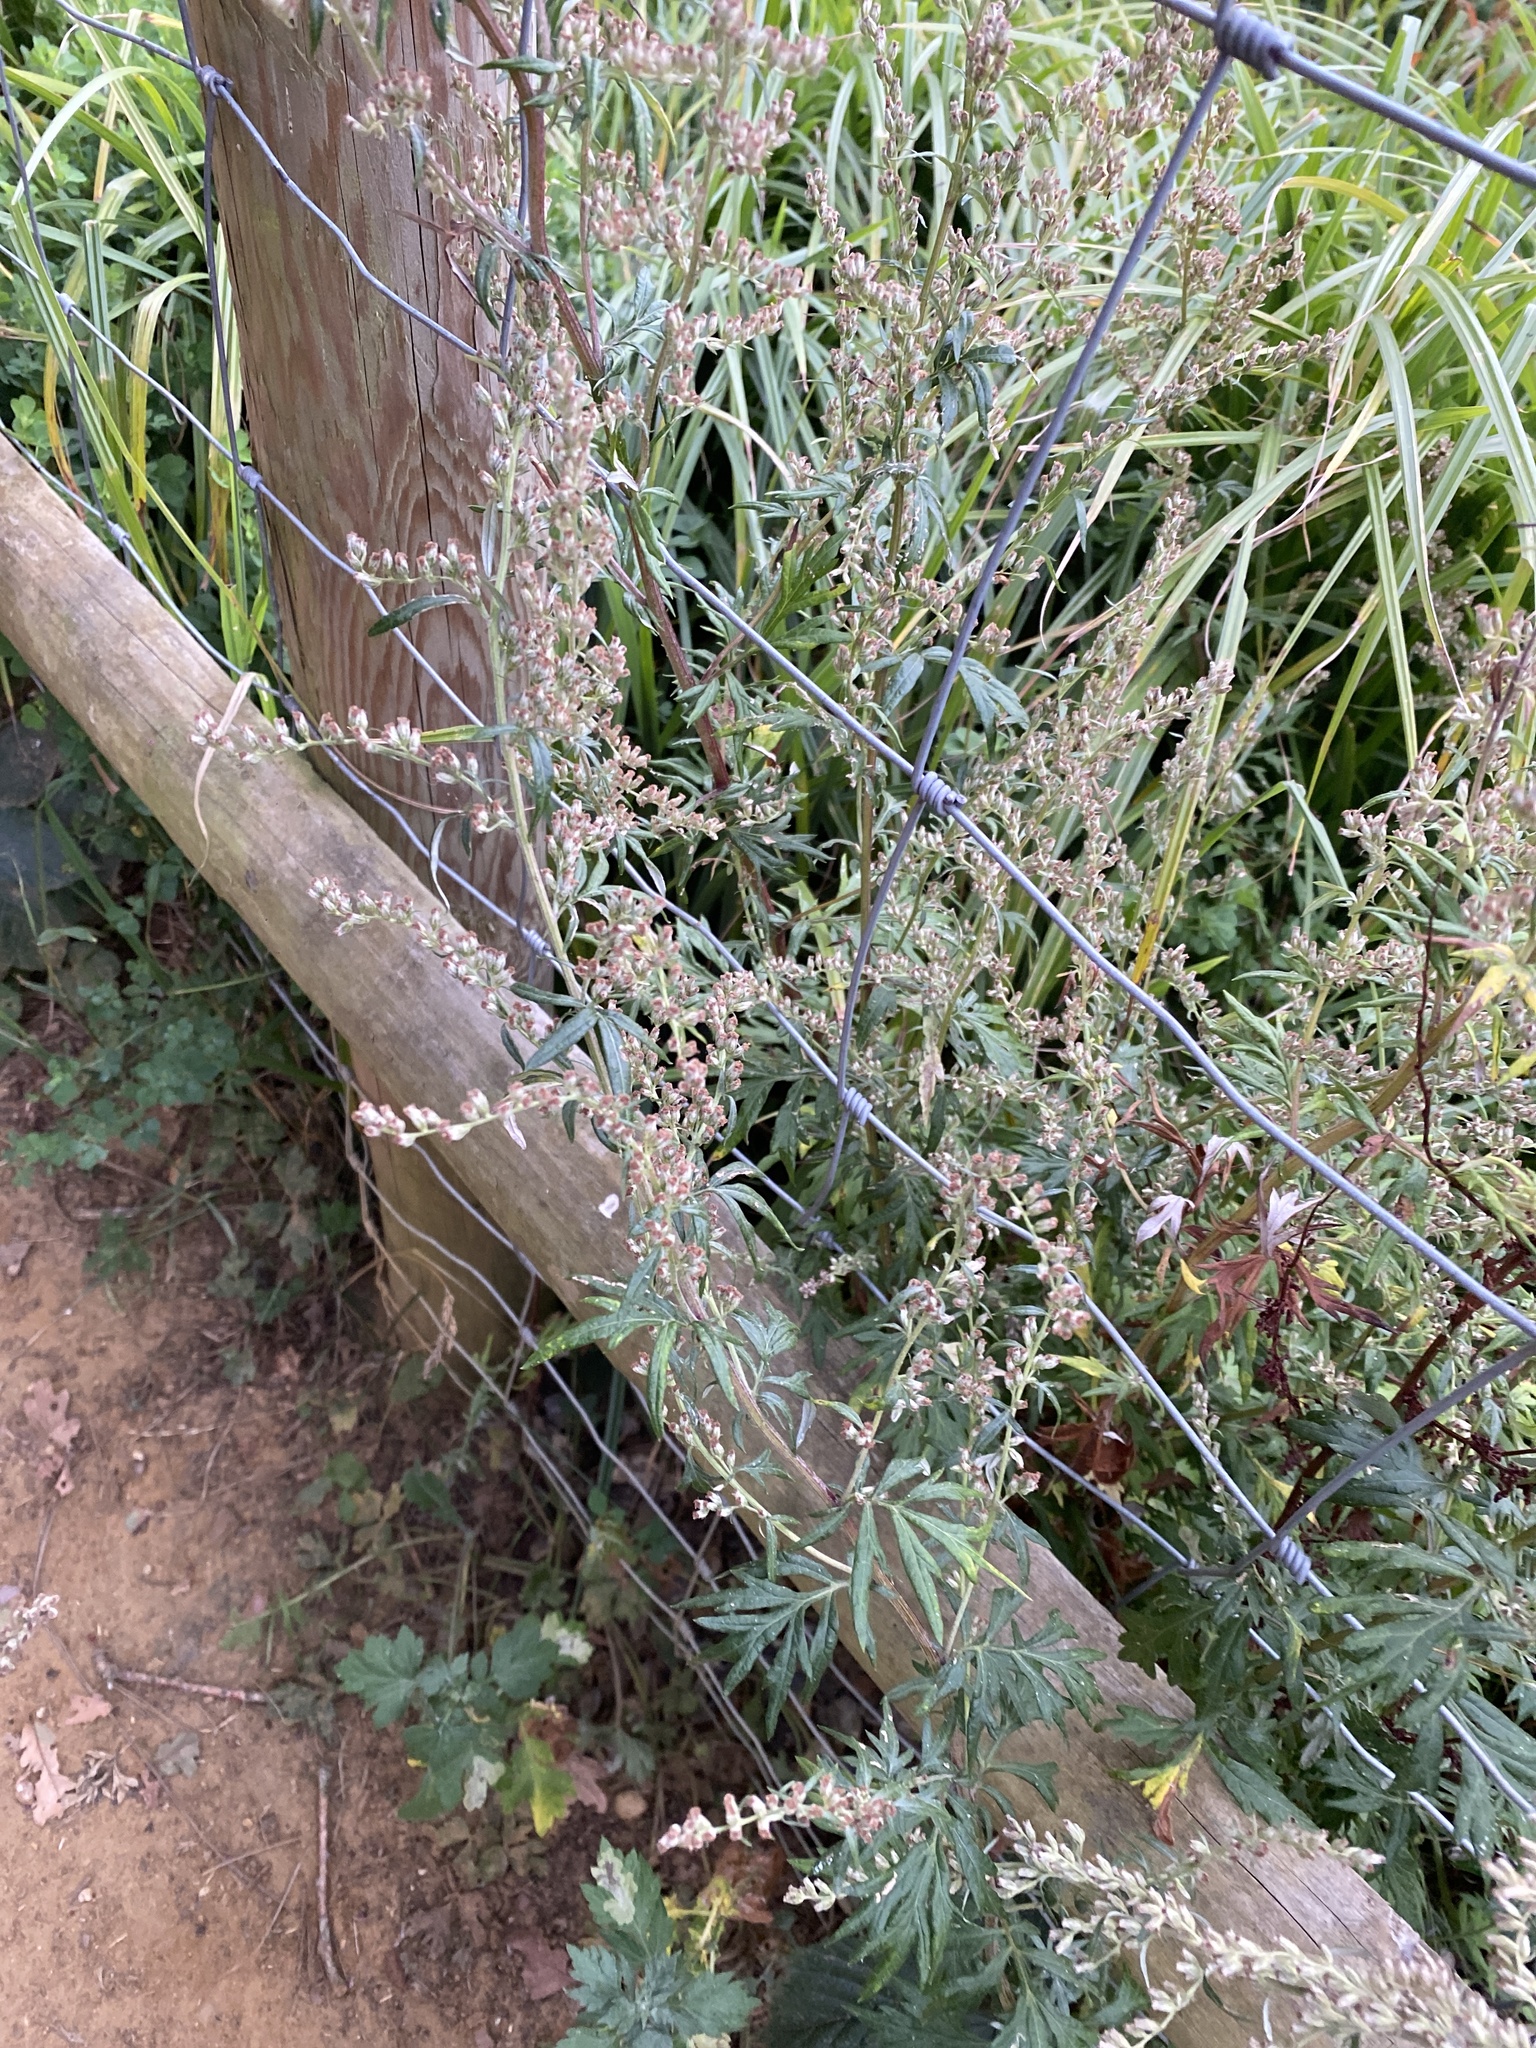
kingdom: Plantae
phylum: Tracheophyta
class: Magnoliopsida
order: Asterales
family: Asteraceae
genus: Artemisia
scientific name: Artemisia vulgaris
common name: Mugwort
